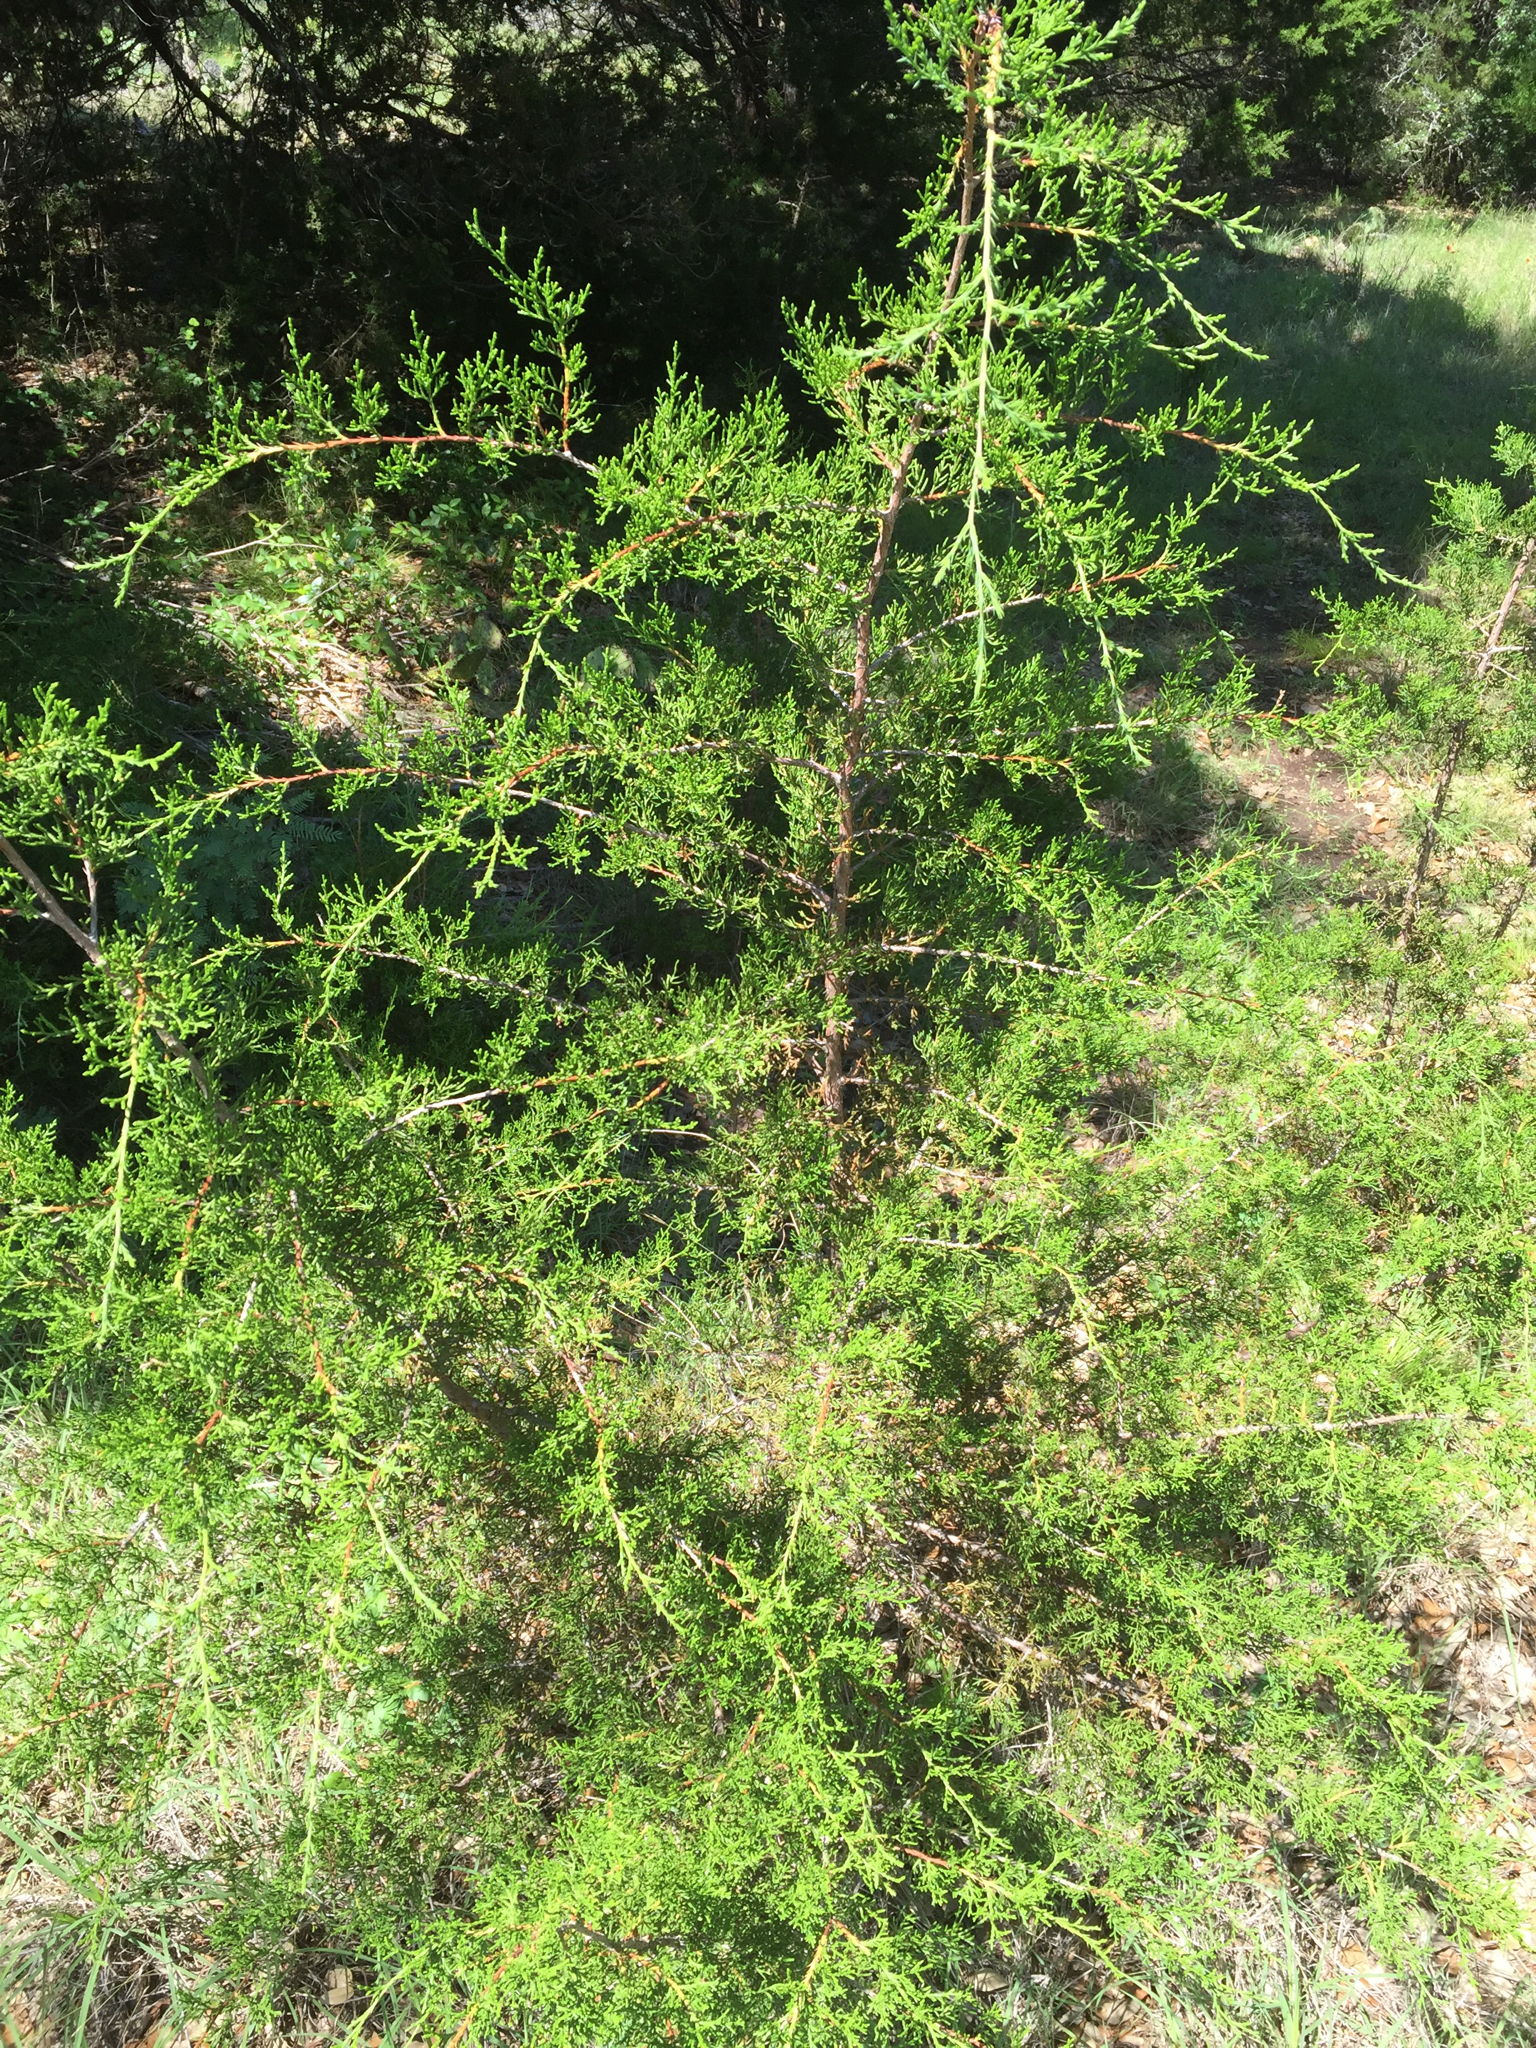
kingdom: Plantae
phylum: Tracheophyta
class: Pinopsida
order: Pinales
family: Cupressaceae
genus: Juniperus
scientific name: Juniperus ashei
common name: Mexican juniper
